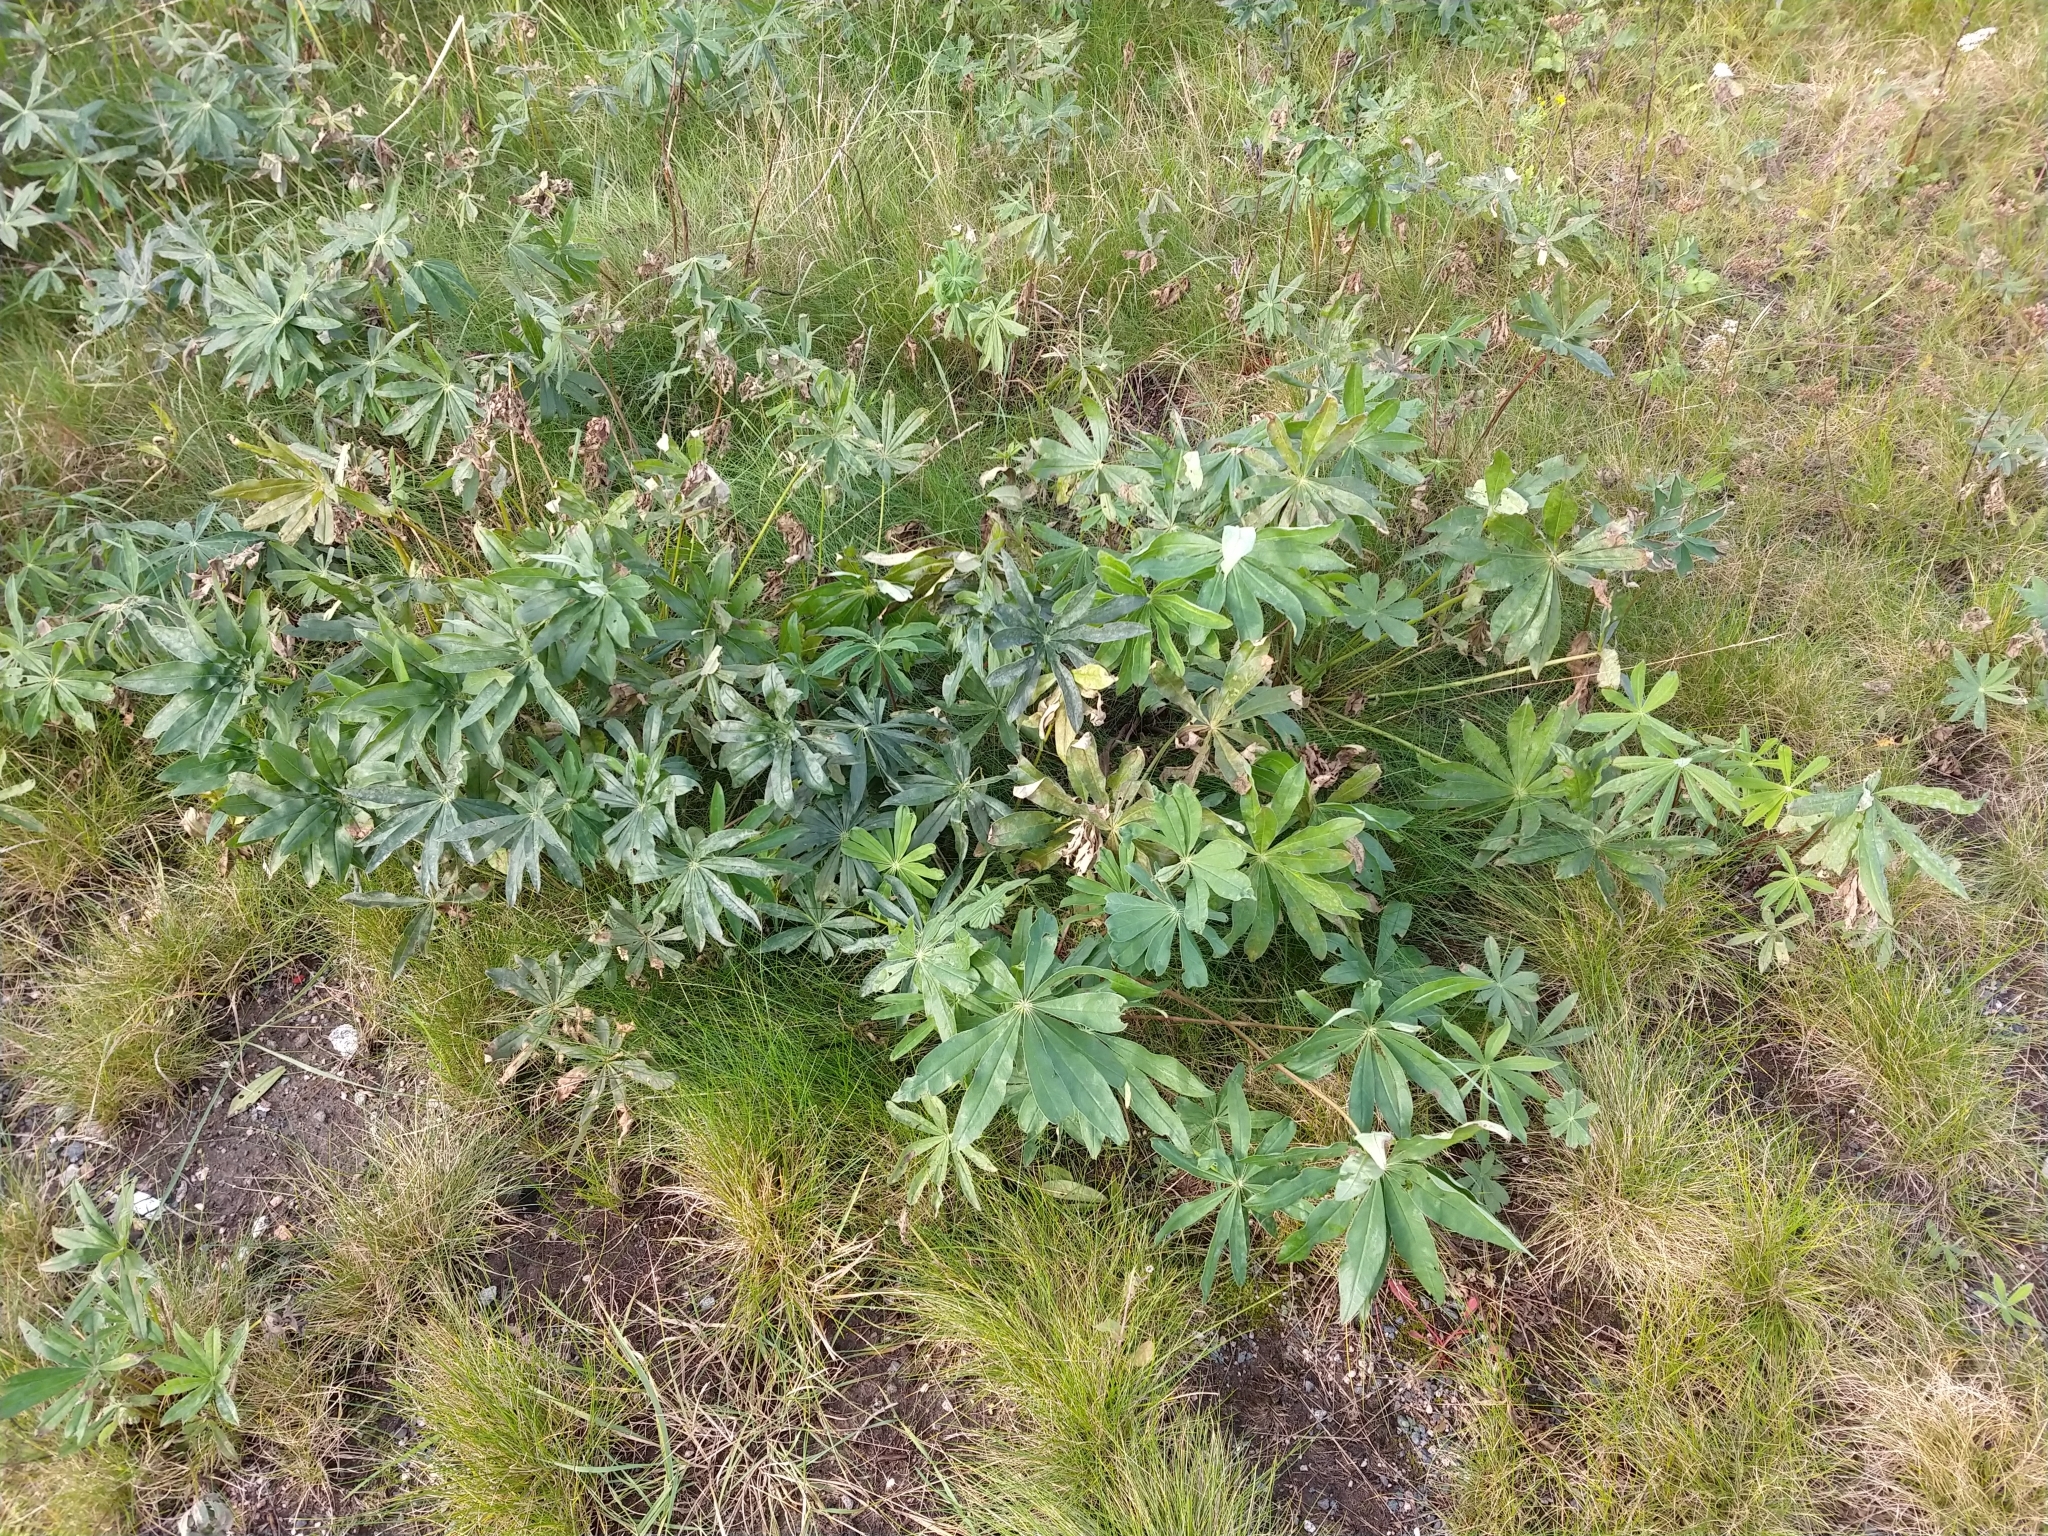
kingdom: Plantae
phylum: Tracheophyta
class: Magnoliopsida
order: Fabales
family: Fabaceae
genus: Lupinus
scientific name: Lupinus polyphyllus
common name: Garden lupin
